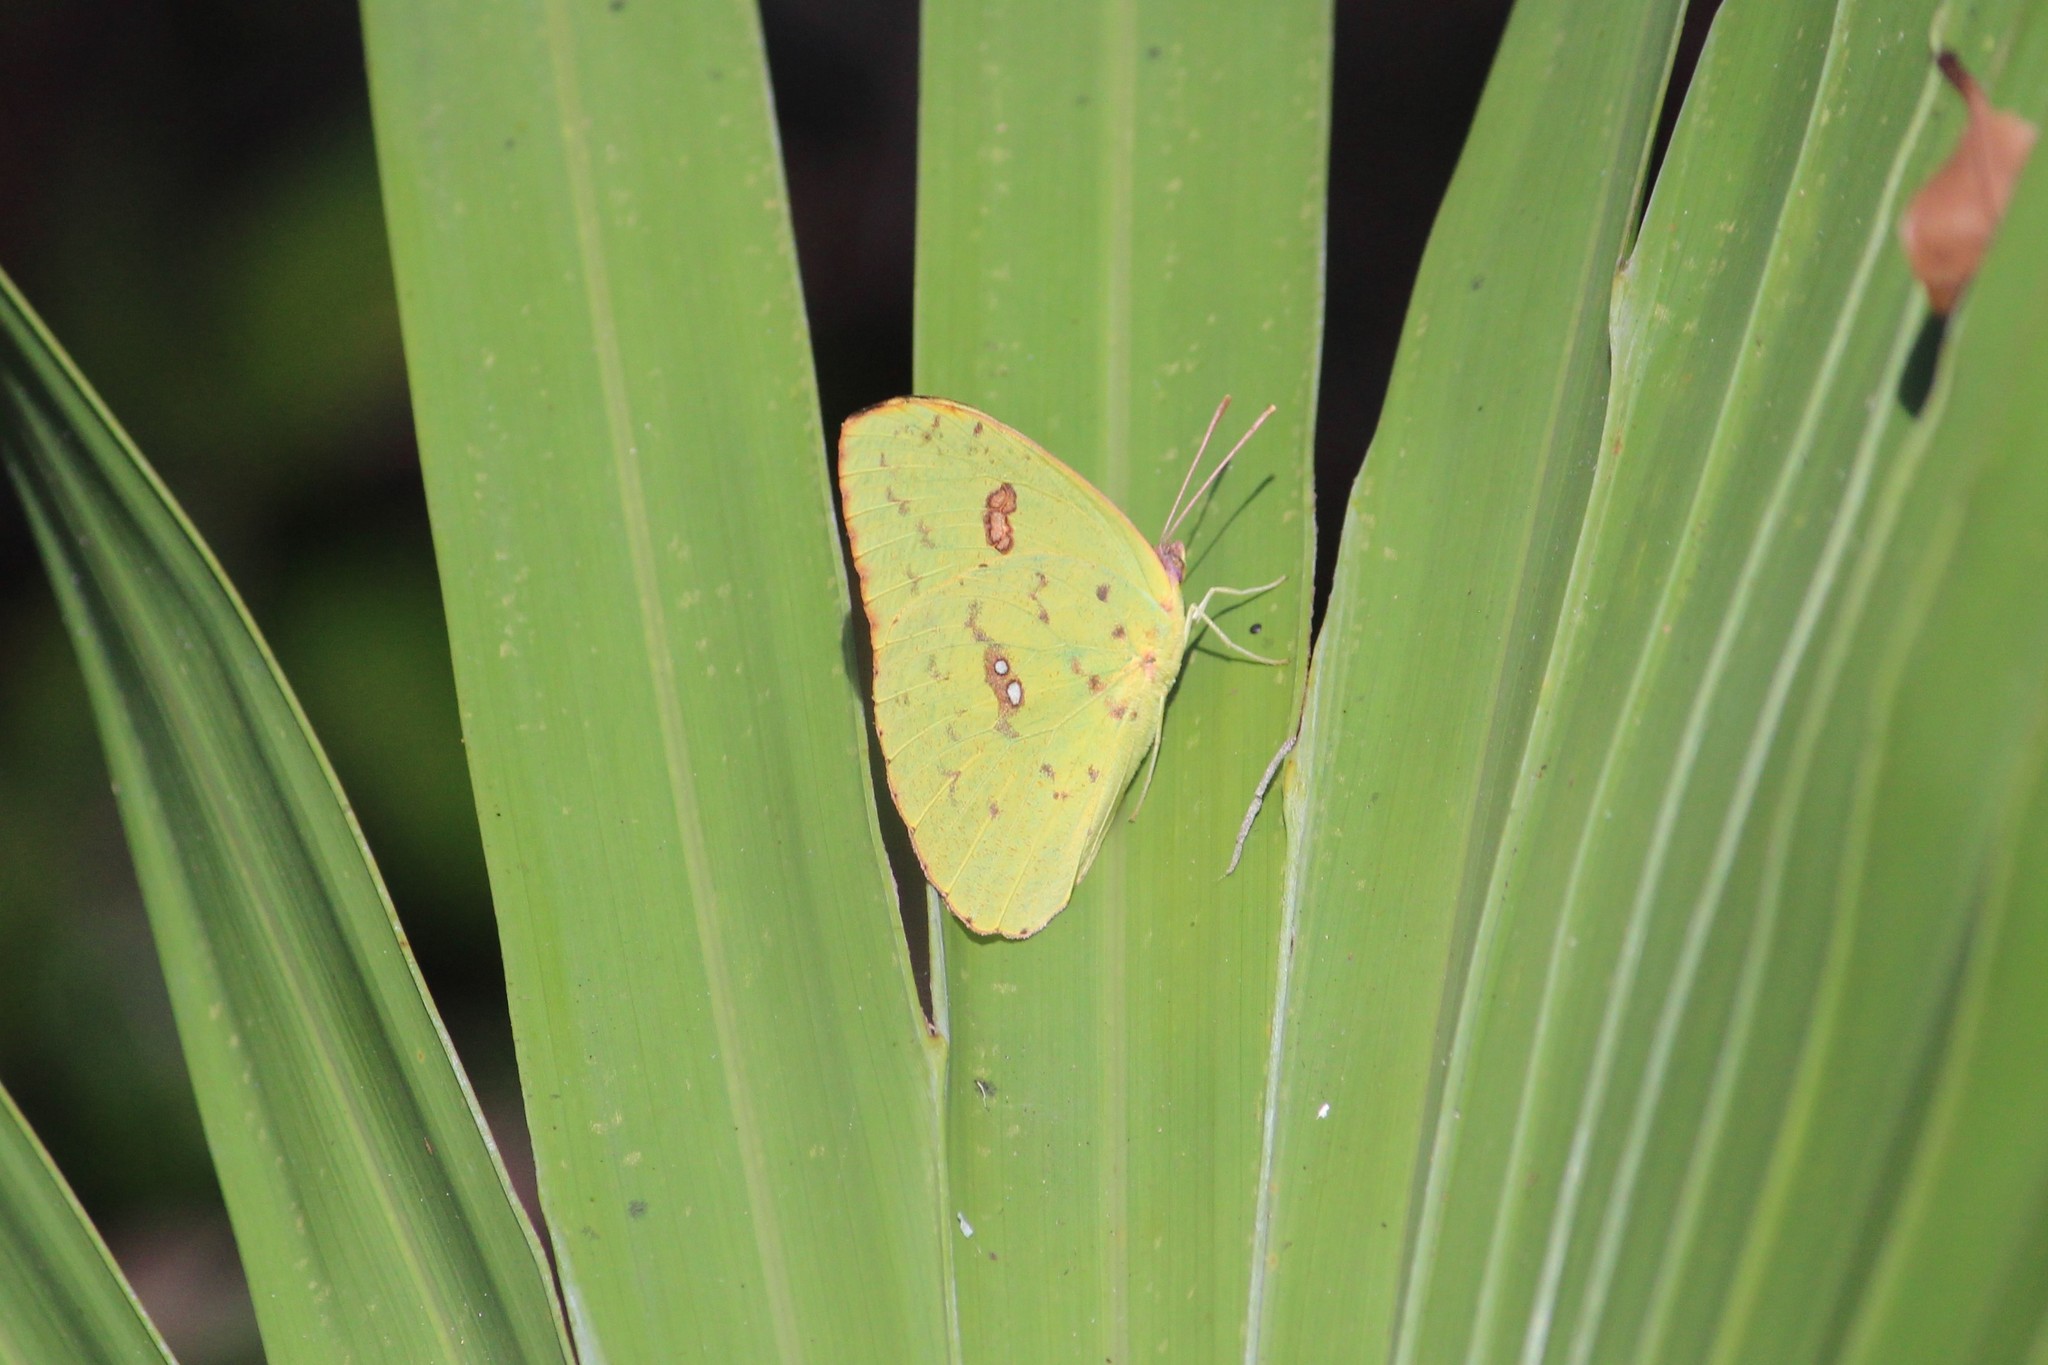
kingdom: Animalia
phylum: Arthropoda
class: Insecta
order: Lepidoptera
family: Pieridae
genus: Phoebis
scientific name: Phoebis sennae
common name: Cloudless sulphur
